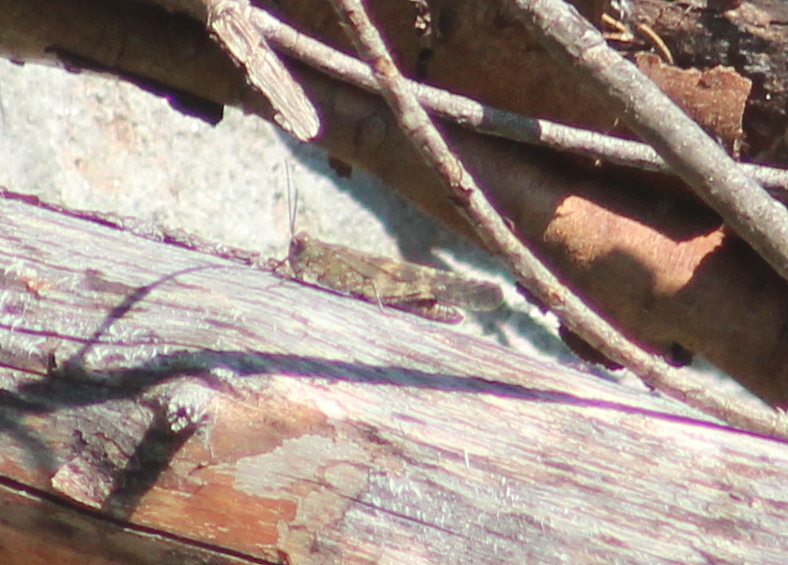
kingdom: Animalia
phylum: Arthropoda
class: Insecta
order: Orthoptera
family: Acrididae
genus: Trimerotropis
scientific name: Trimerotropis verruculata
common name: Crackling forest grasshopper
